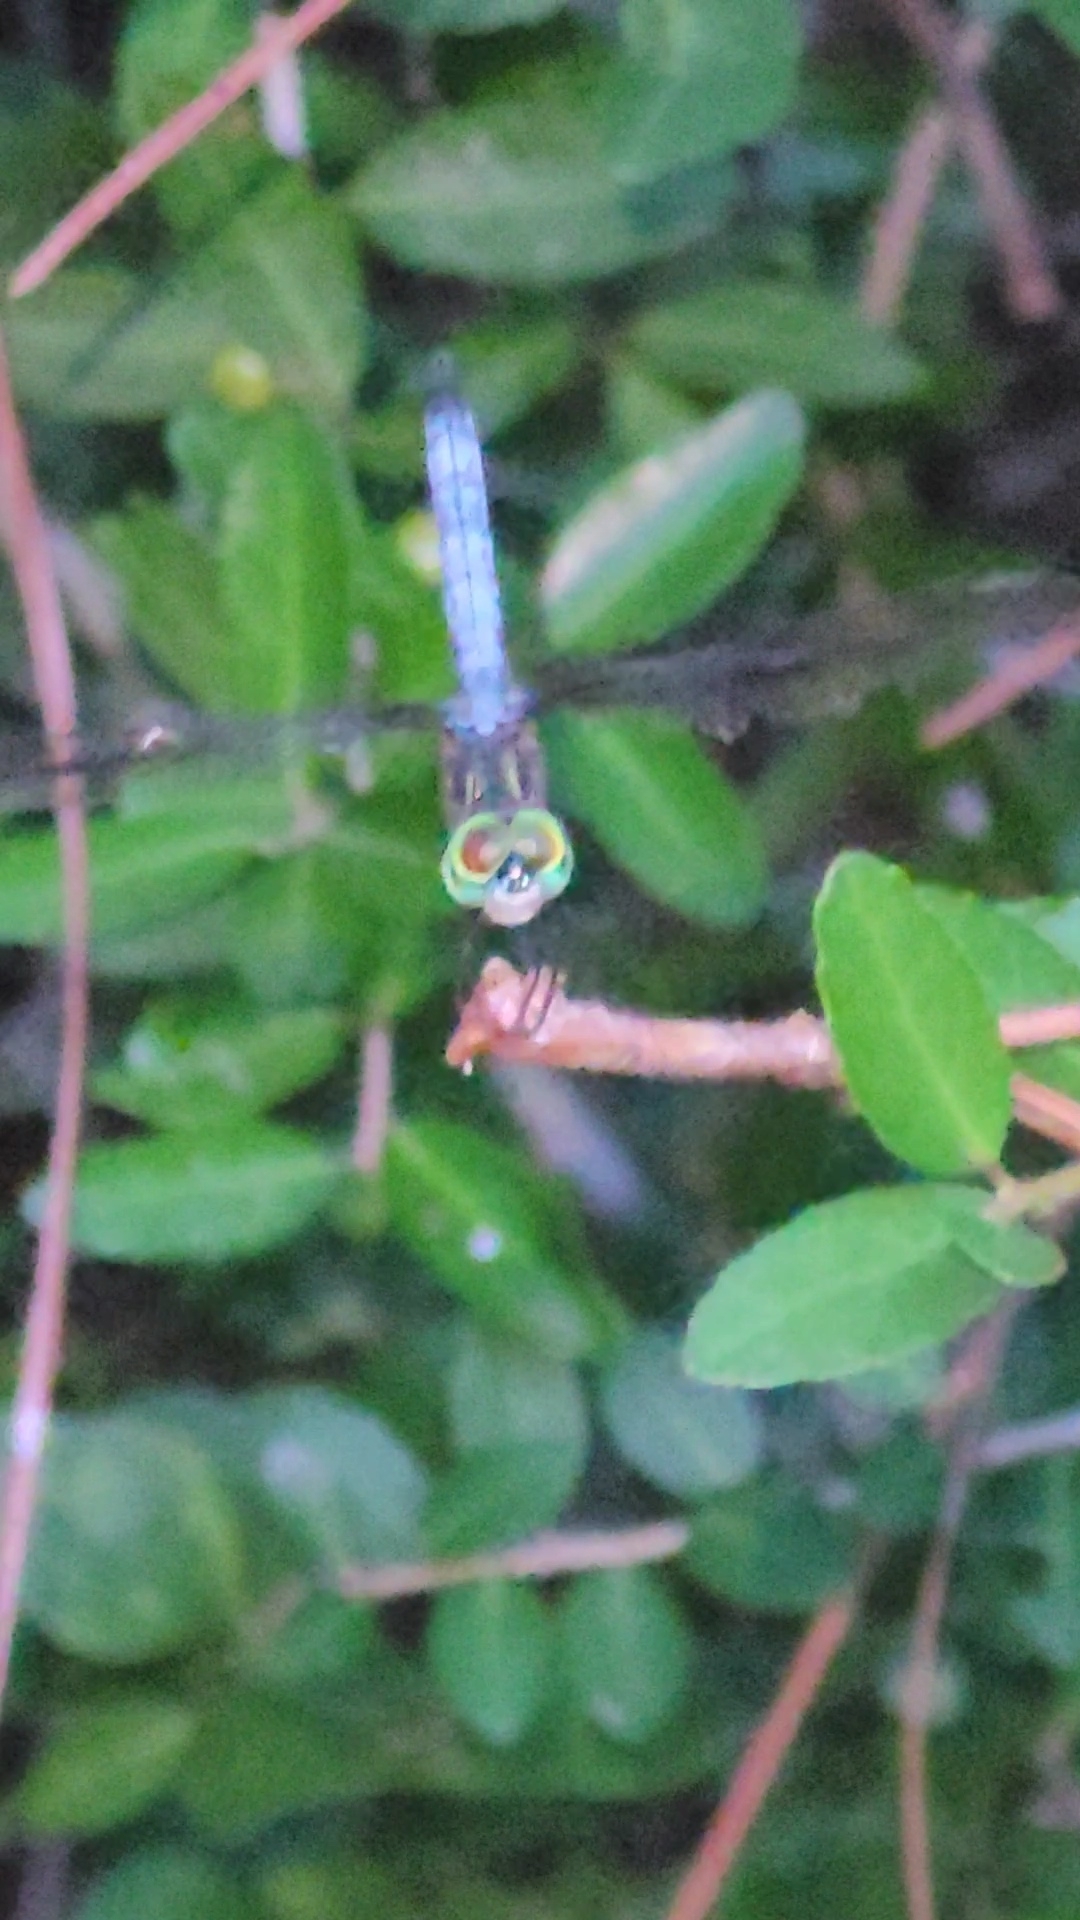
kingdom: Animalia
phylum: Arthropoda
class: Insecta
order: Odonata
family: Libellulidae
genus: Pachydiplax
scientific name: Pachydiplax longipennis
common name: Blue dasher
